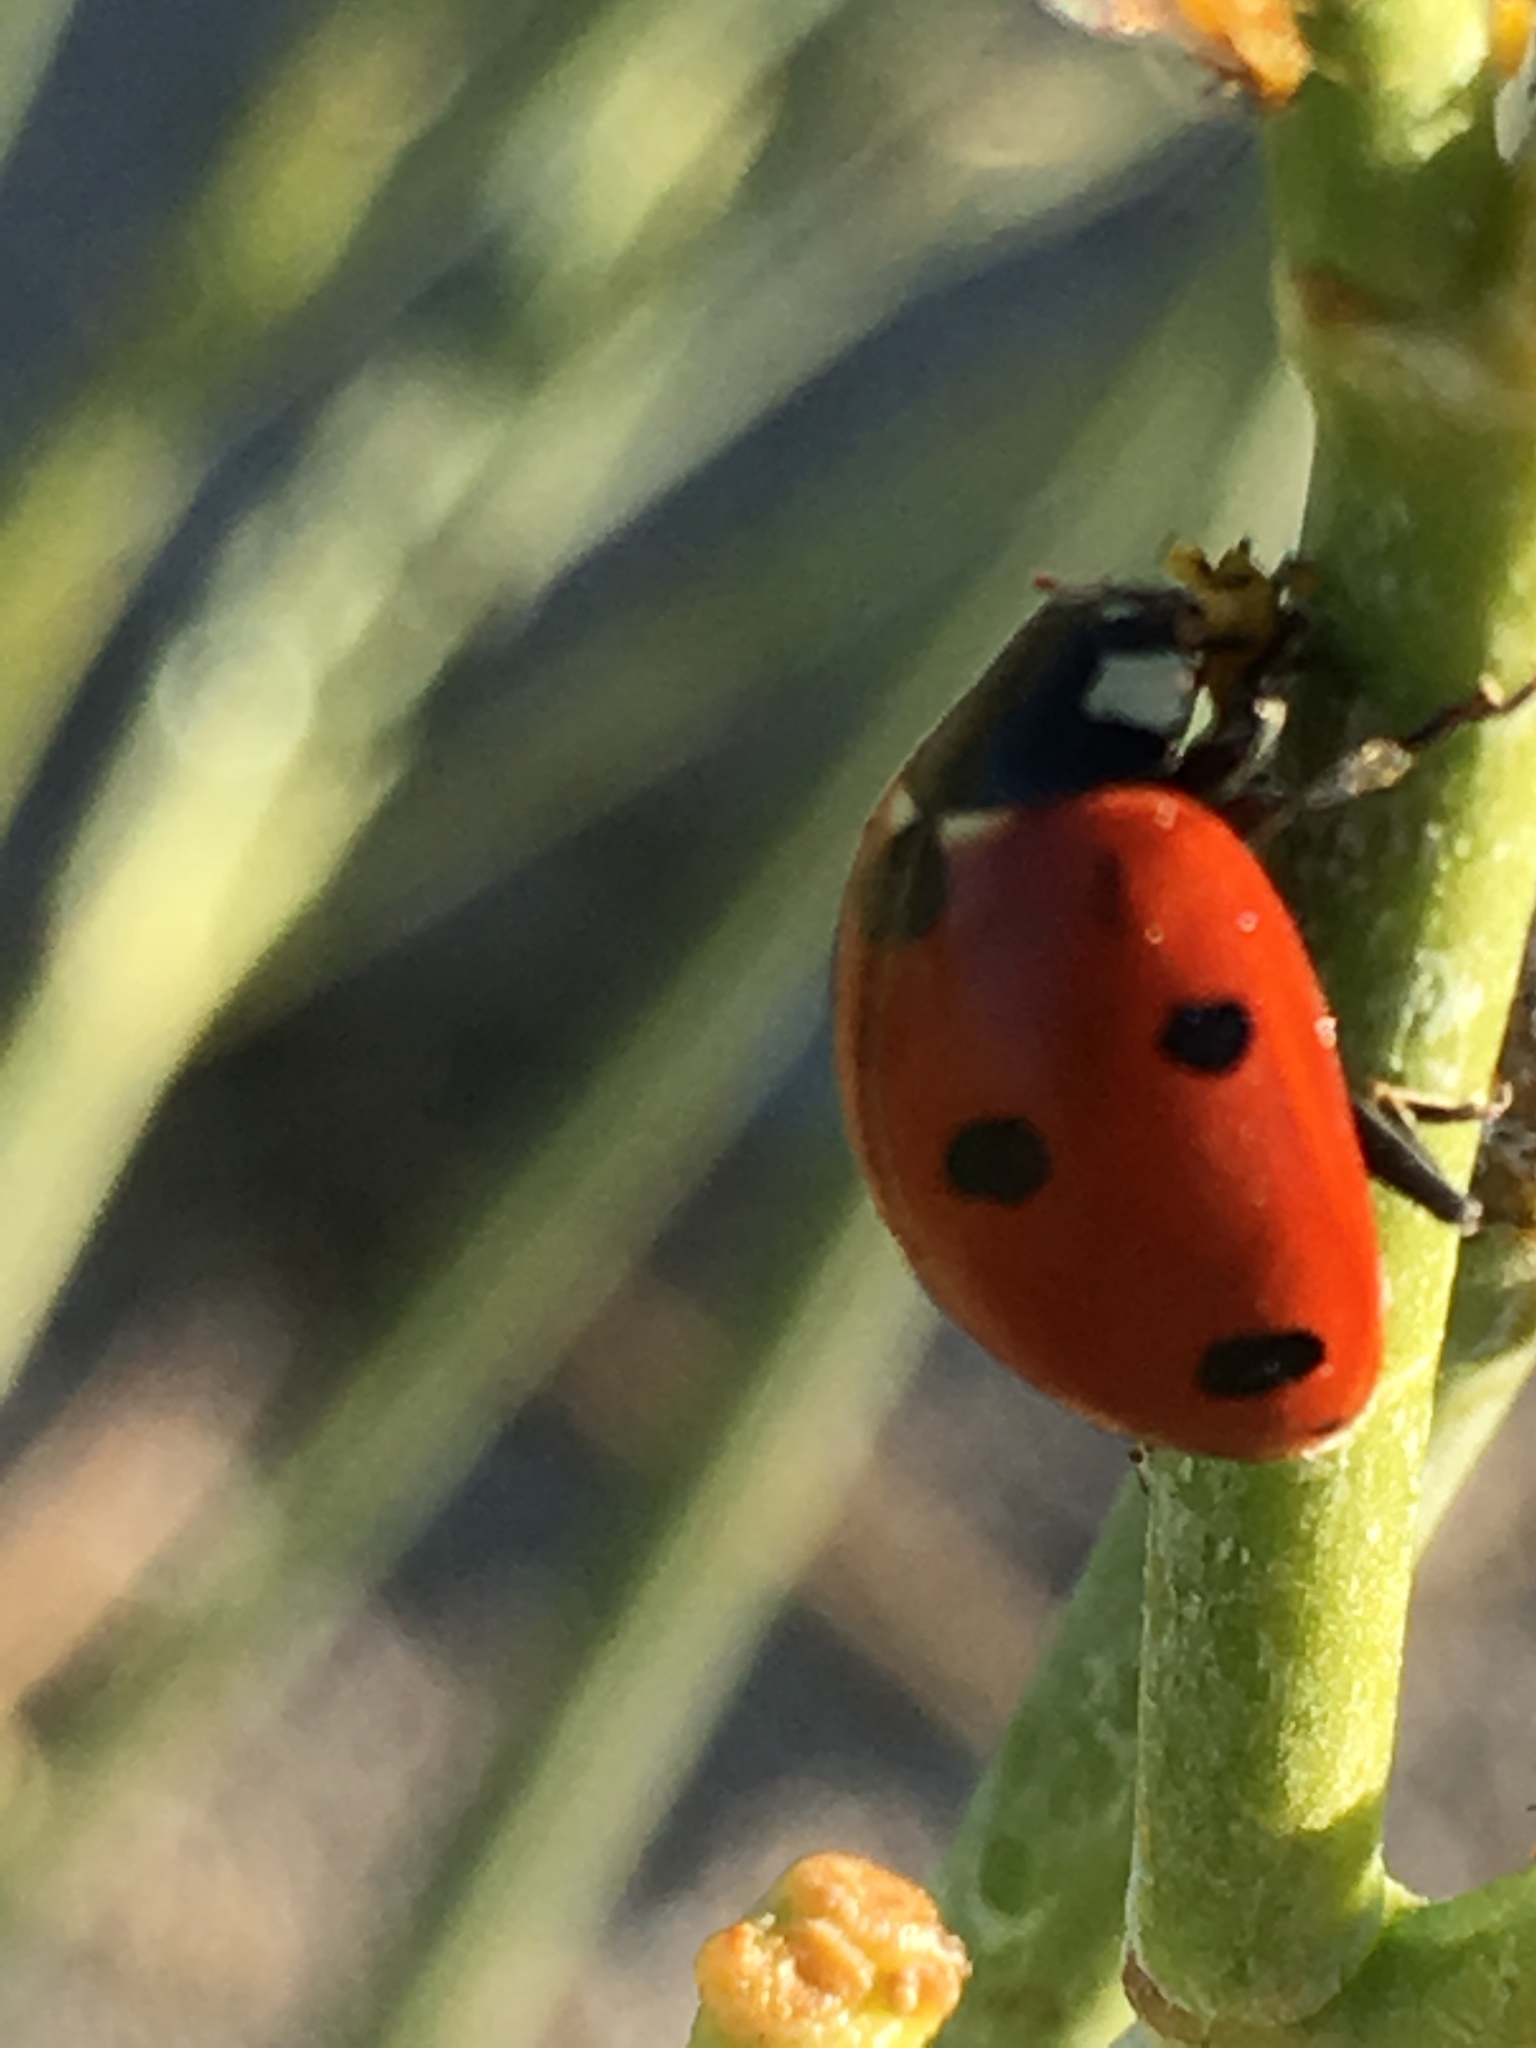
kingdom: Animalia
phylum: Arthropoda
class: Insecta
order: Coleoptera
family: Coccinellidae
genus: Coccinella
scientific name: Coccinella septempunctata
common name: Sevenspotted lady beetle
